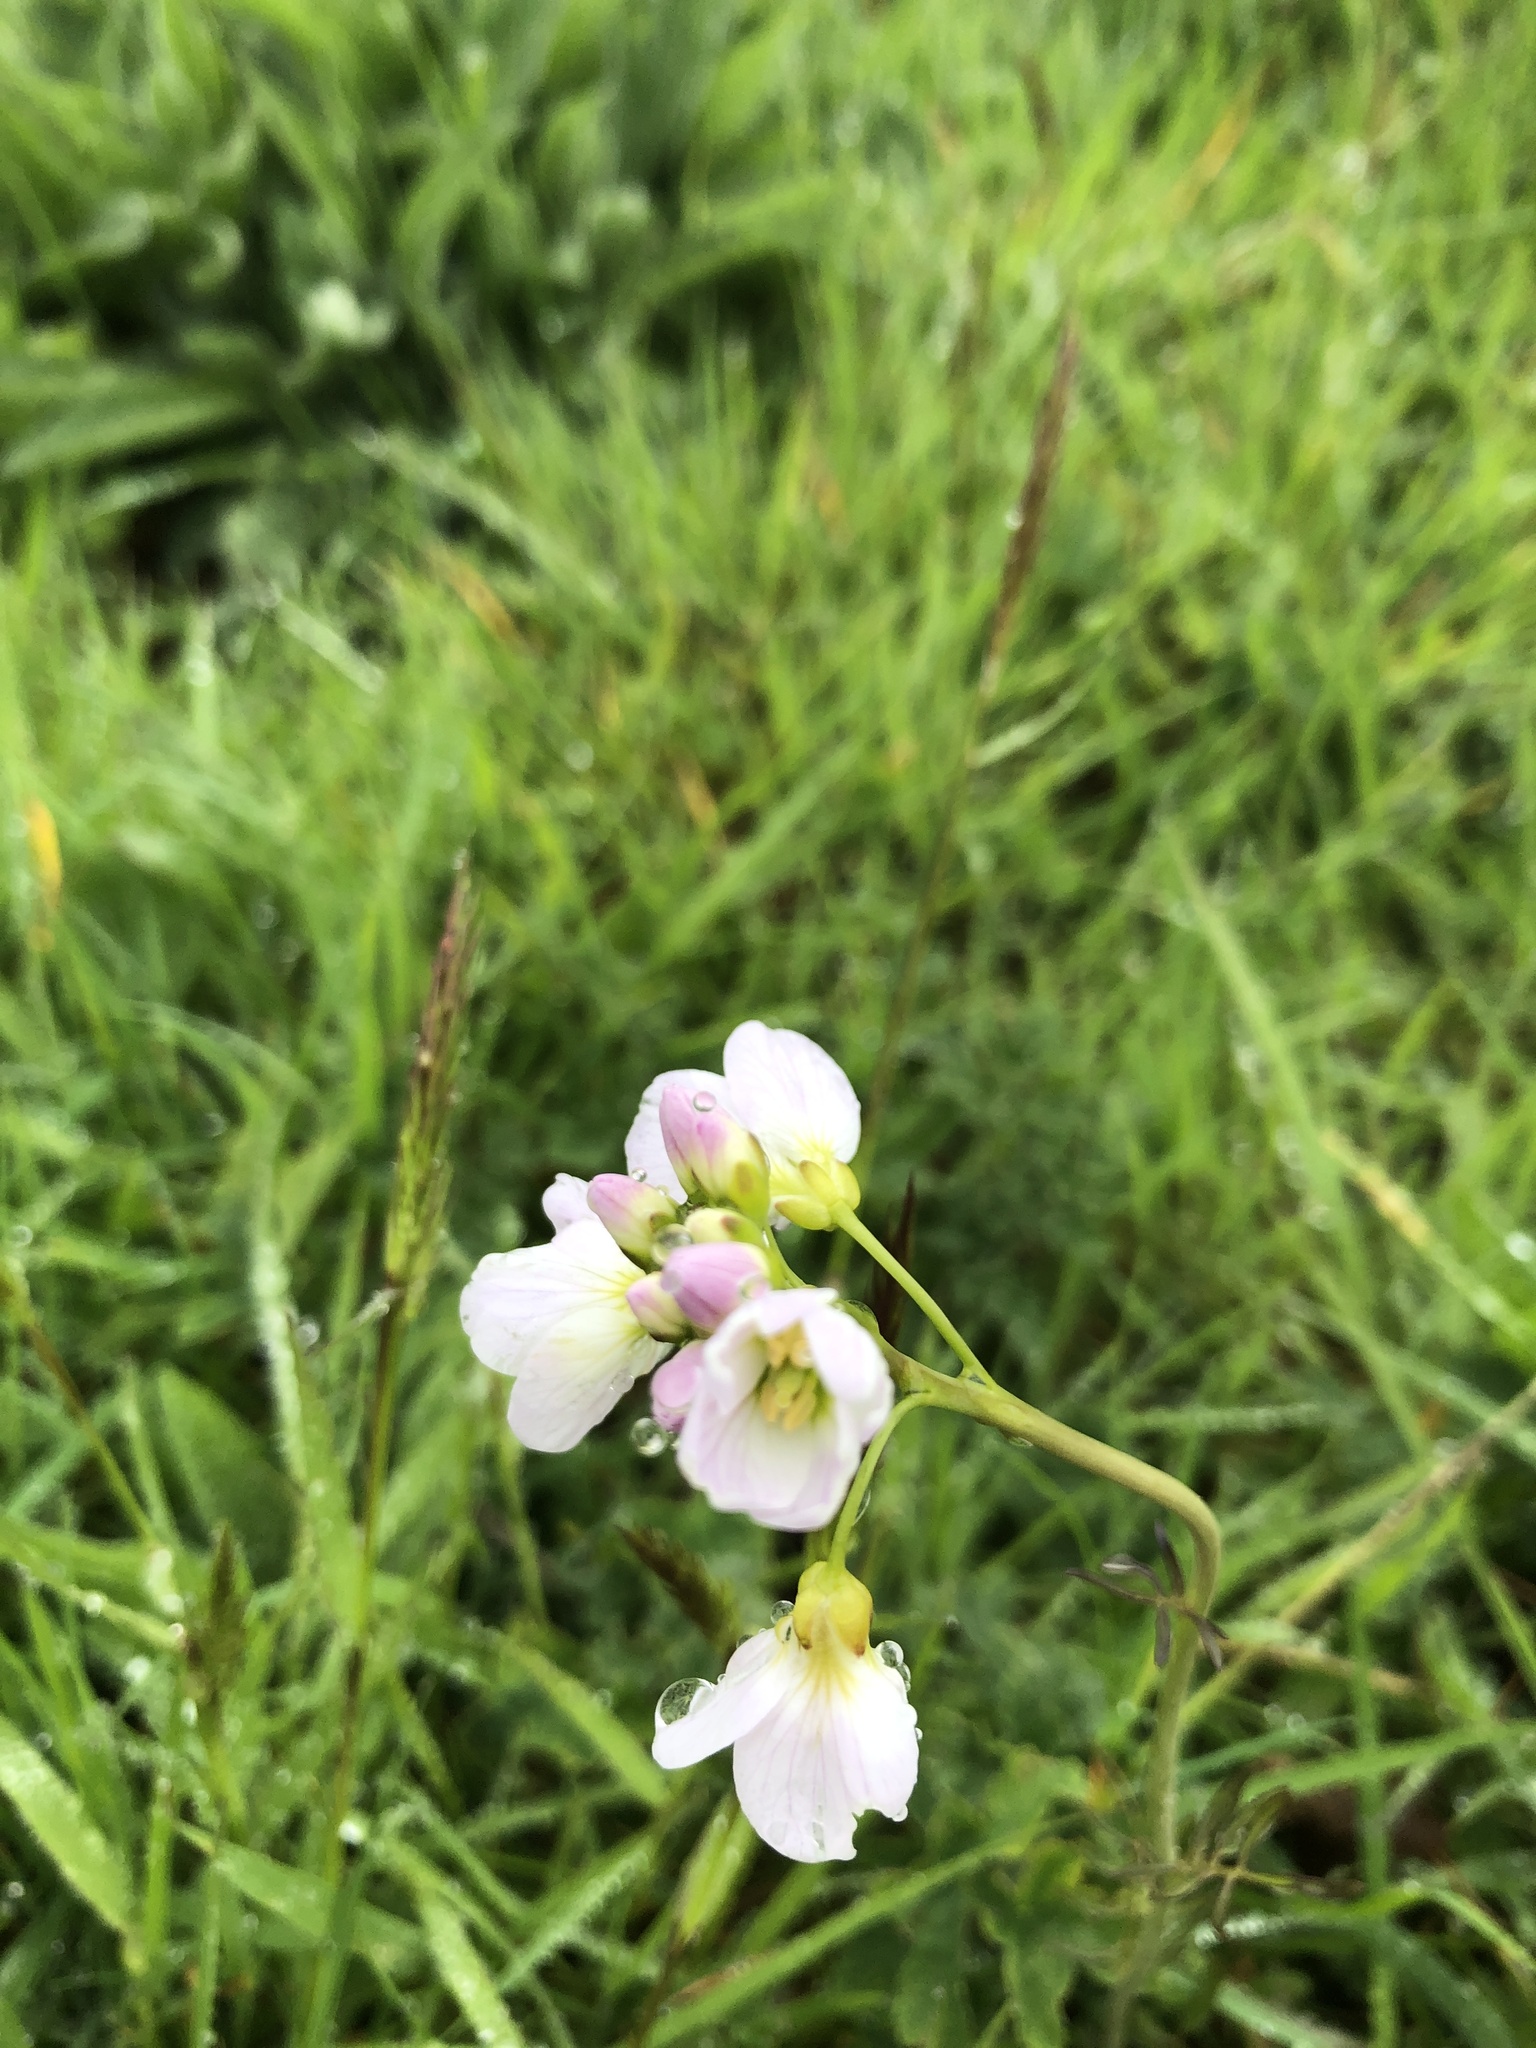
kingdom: Plantae
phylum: Tracheophyta
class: Magnoliopsida
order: Brassicales
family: Brassicaceae
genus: Cardamine
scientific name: Cardamine pratensis
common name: Cuckoo flower
